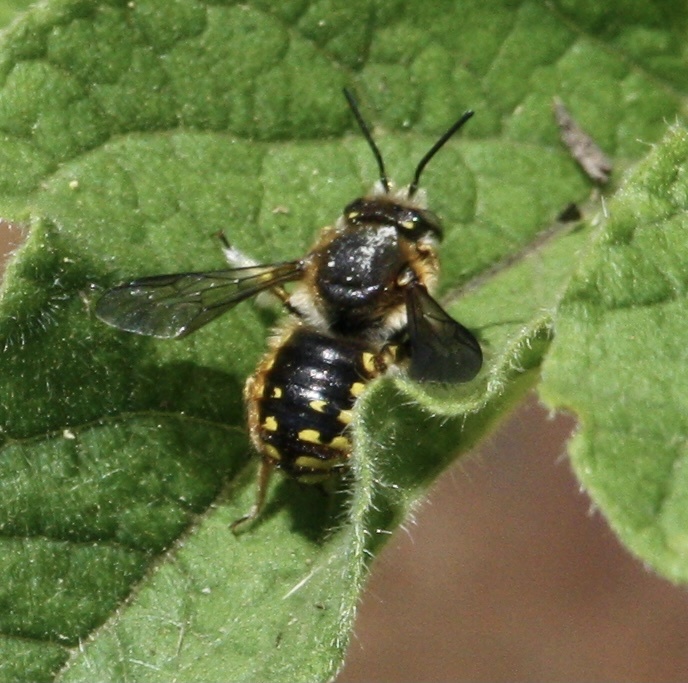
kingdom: Animalia
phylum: Arthropoda
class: Insecta
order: Hymenoptera
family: Megachilidae
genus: Anthidium
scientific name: Anthidium manicatum
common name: Wool carder bee
